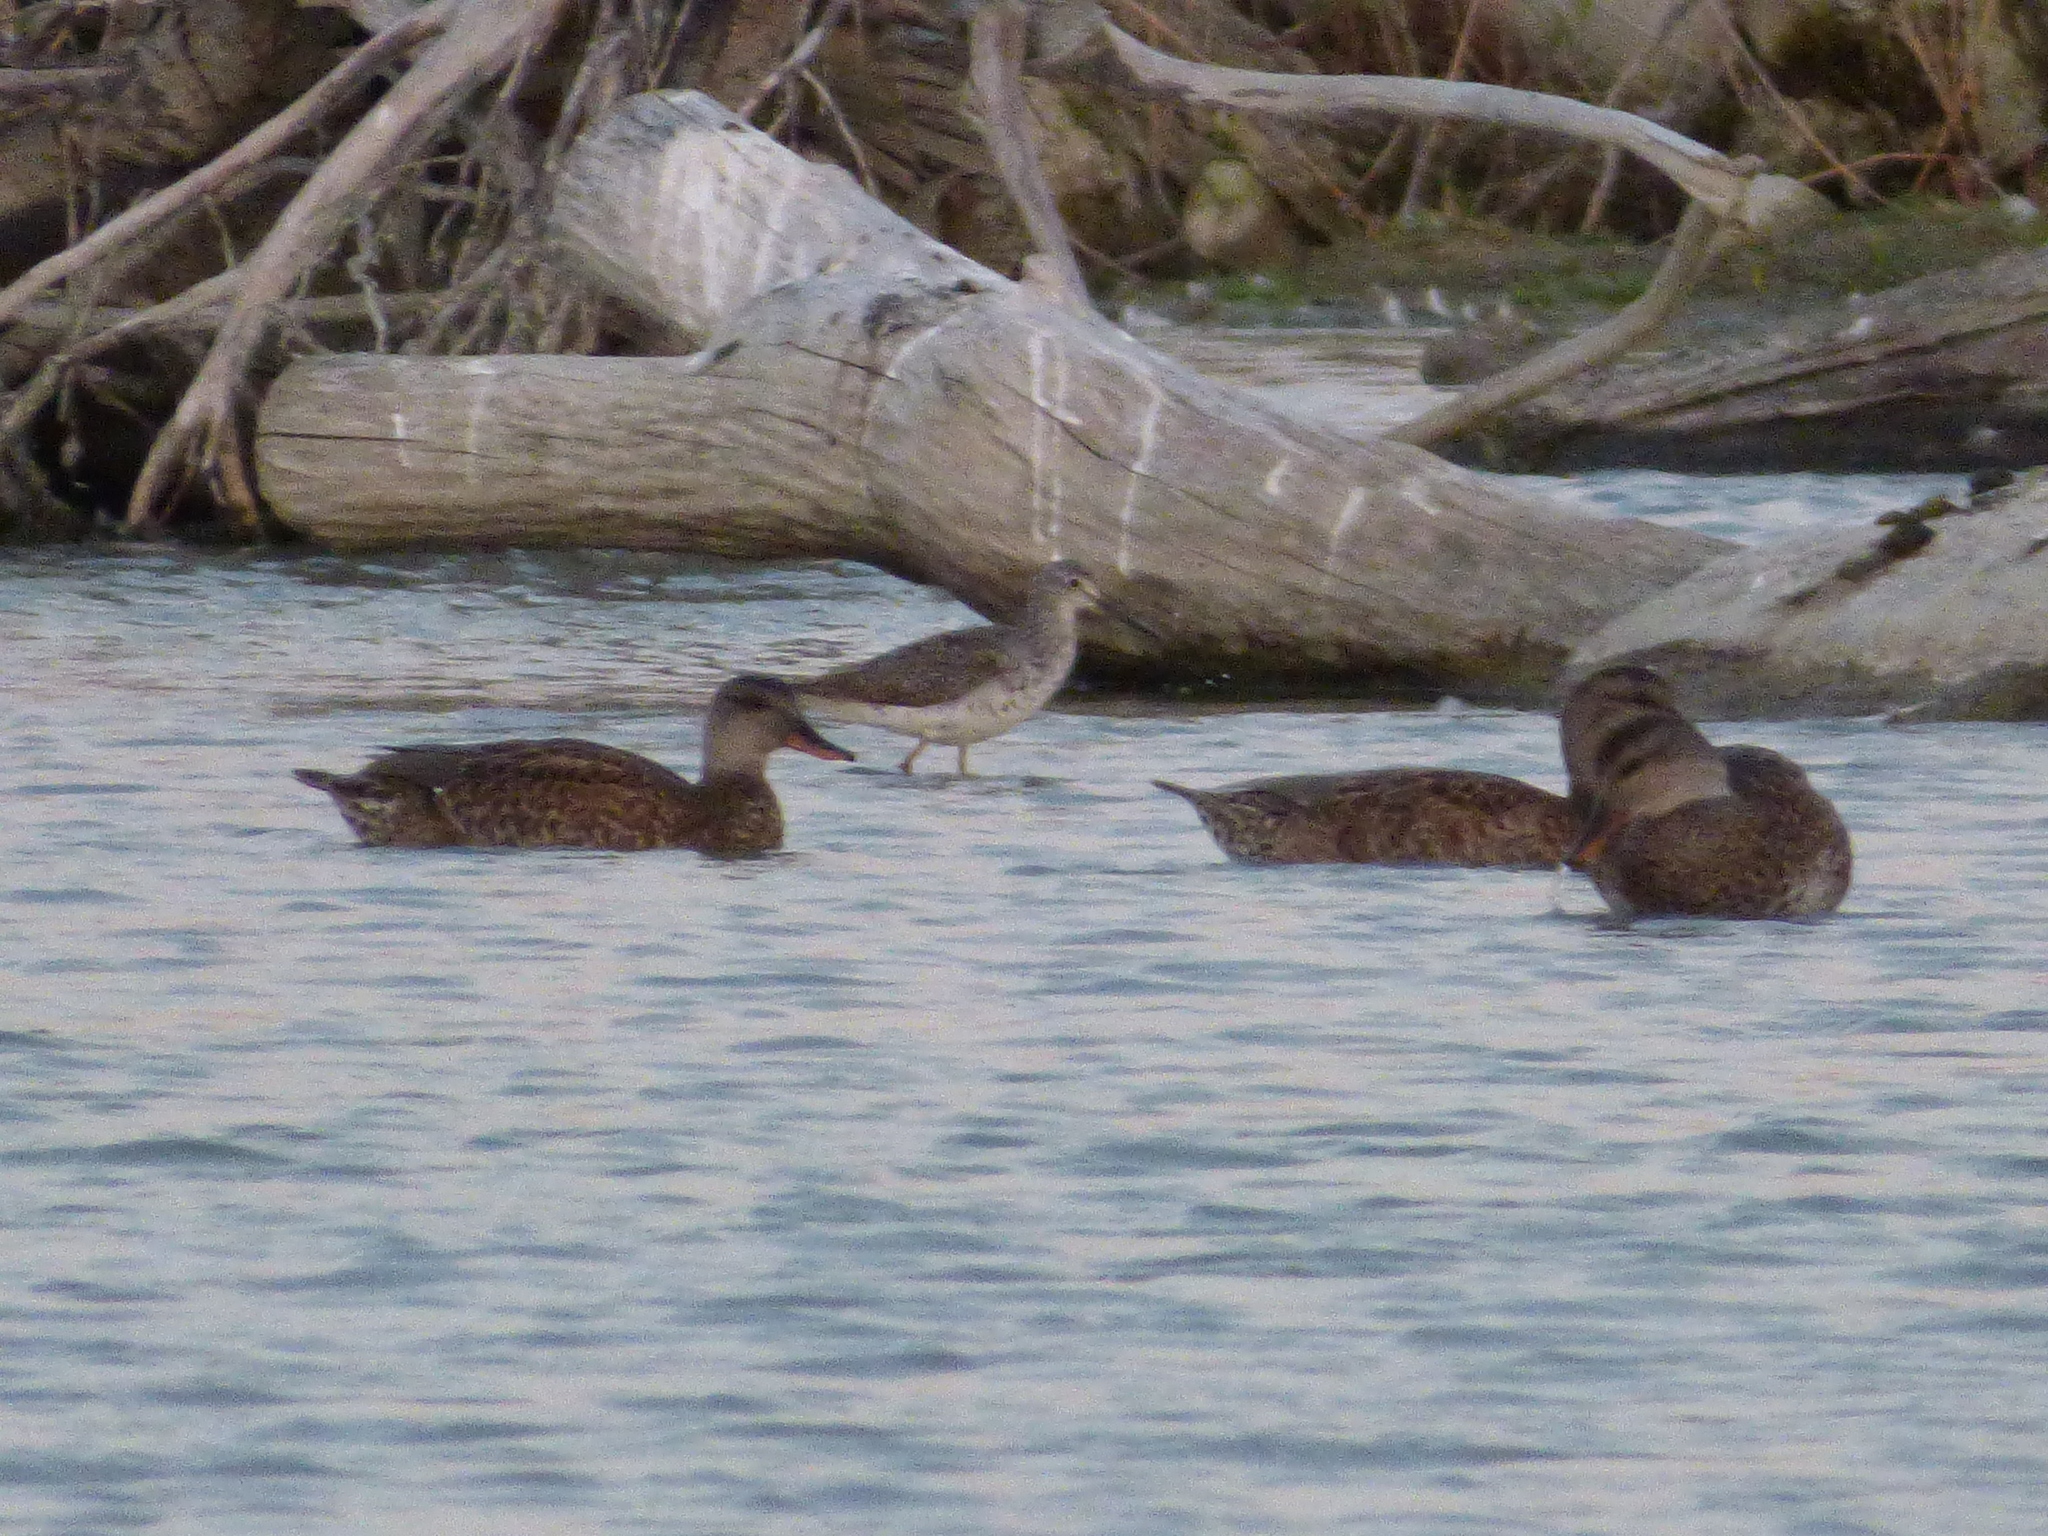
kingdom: Animalia
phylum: Chordata
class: Aves
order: Anseriformes
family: Anatidae
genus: Mareca
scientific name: Mareca strepera
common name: Gadwall
